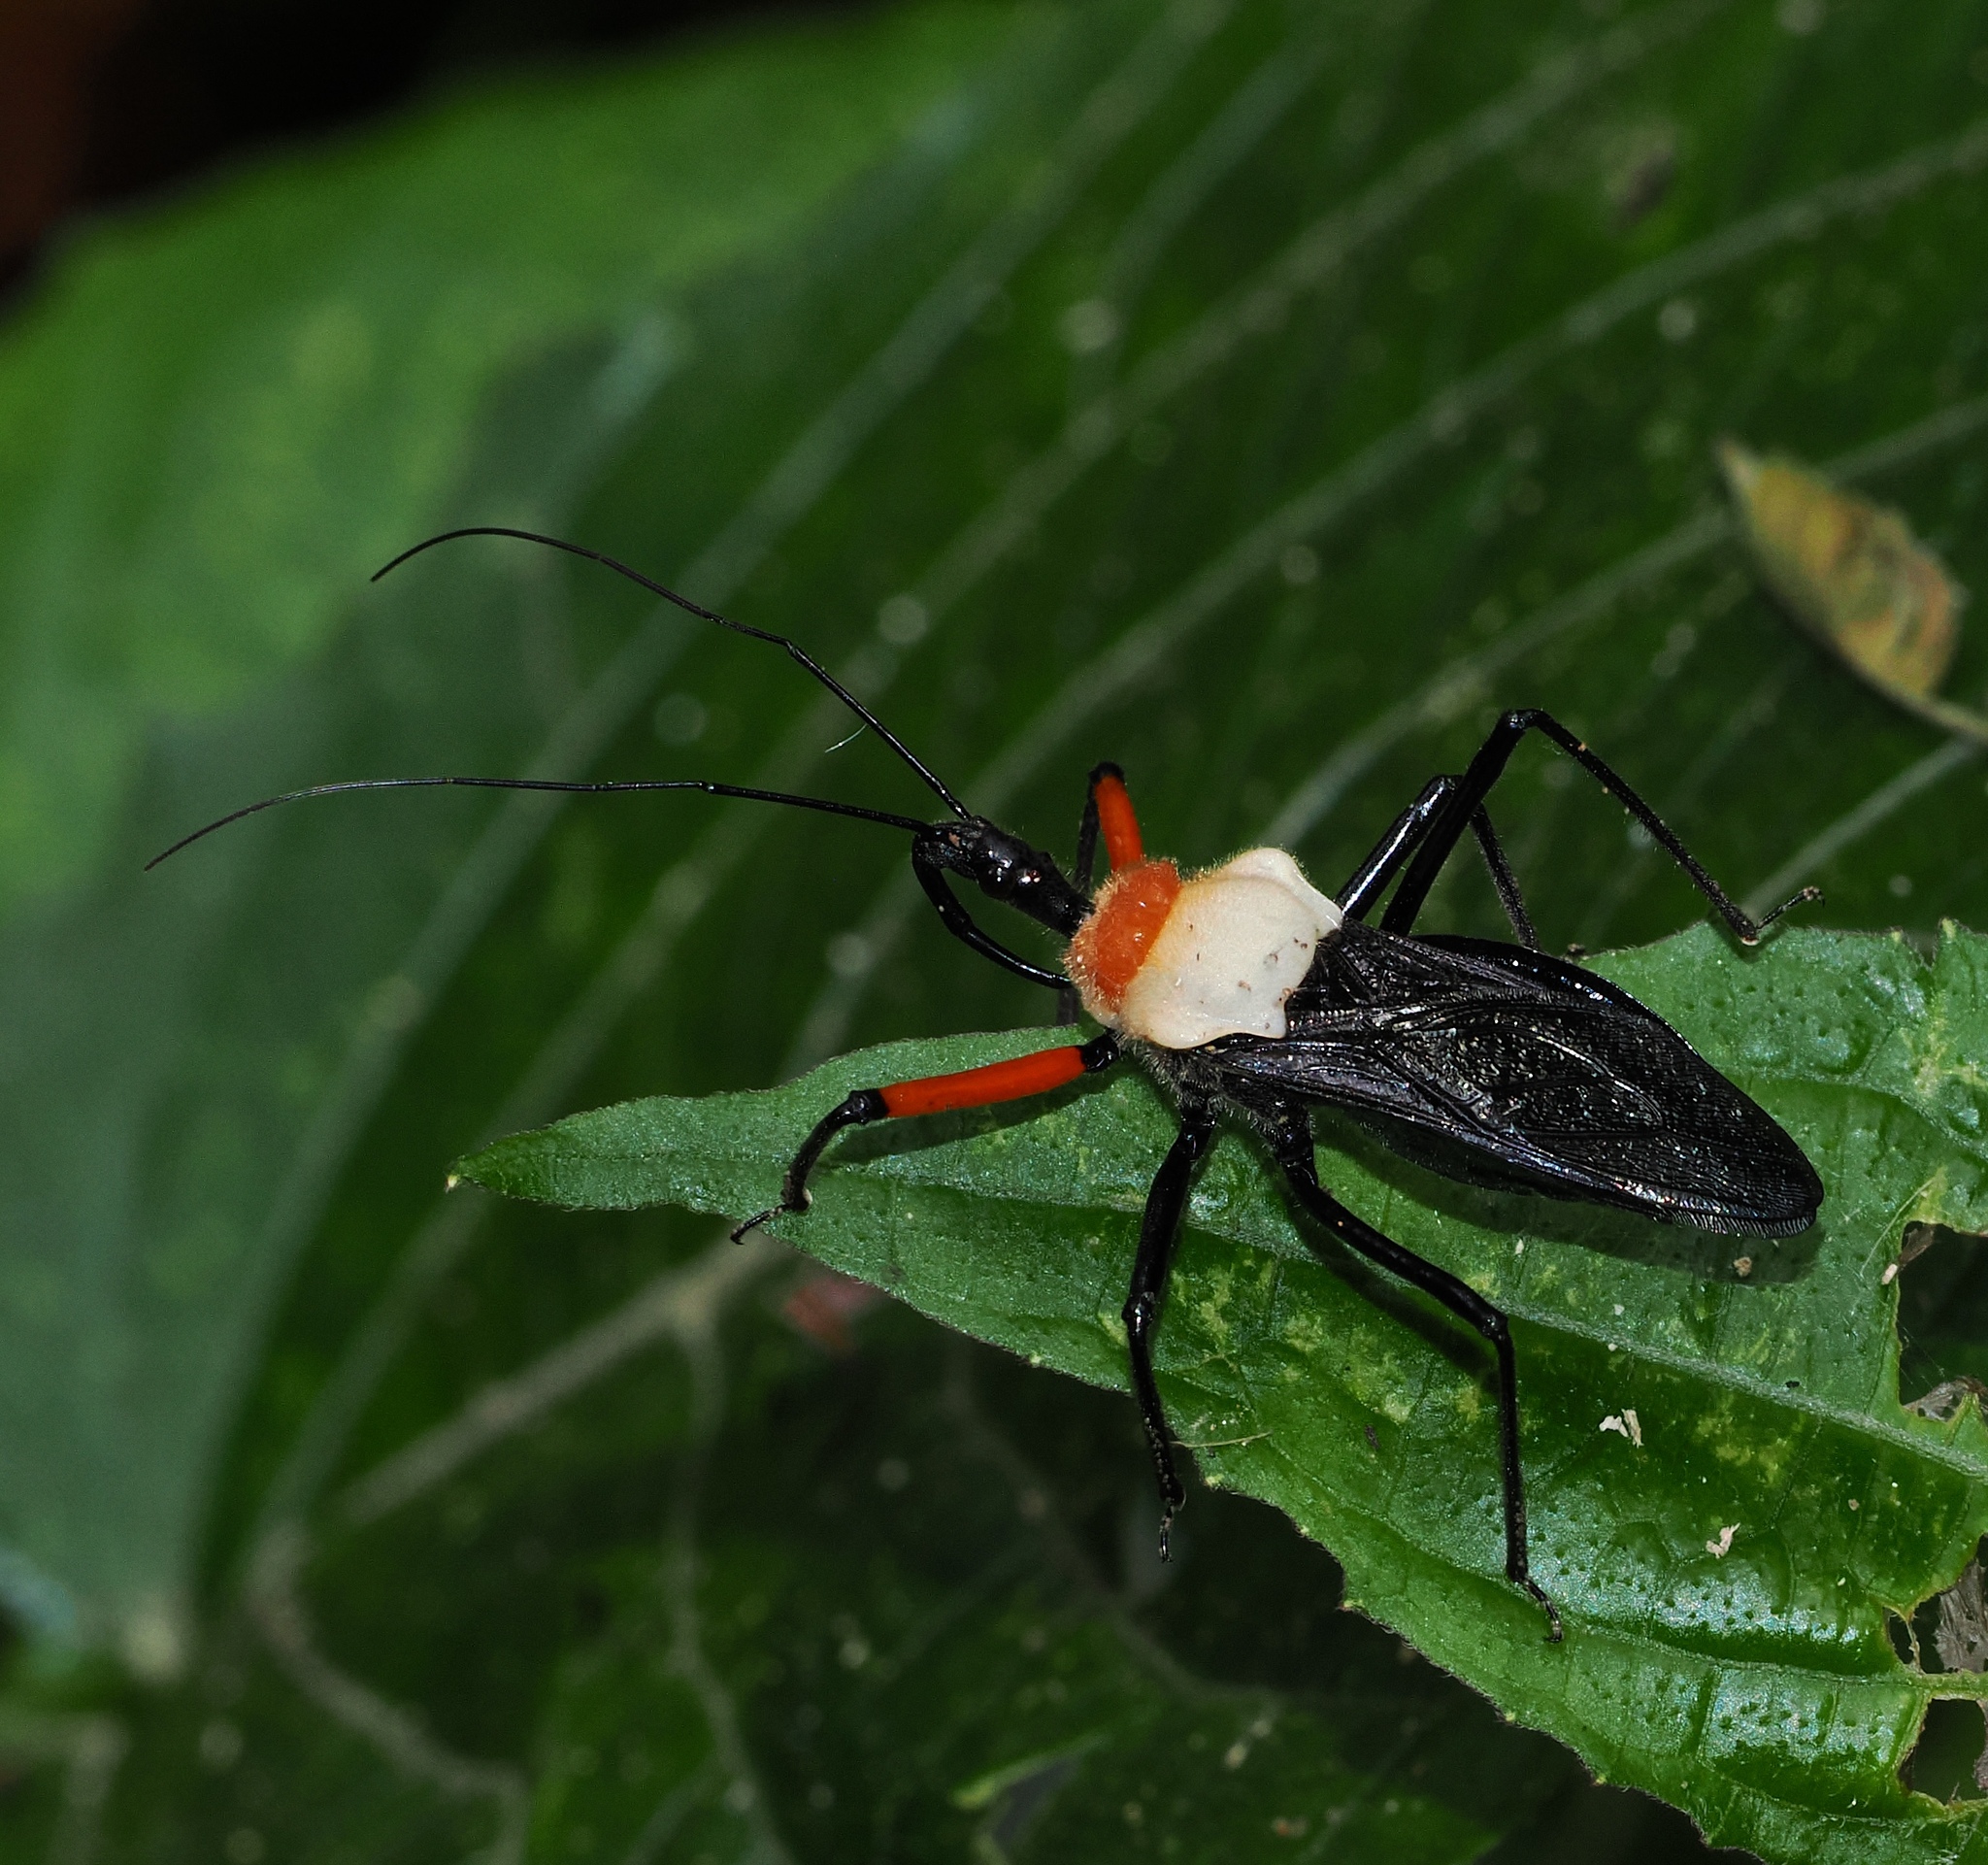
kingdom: Animalia
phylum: Arthropoda
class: Insecta
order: Hemiptera
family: Reduviidae
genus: Rhynocoris
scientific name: Rhynocoris nitidulus
